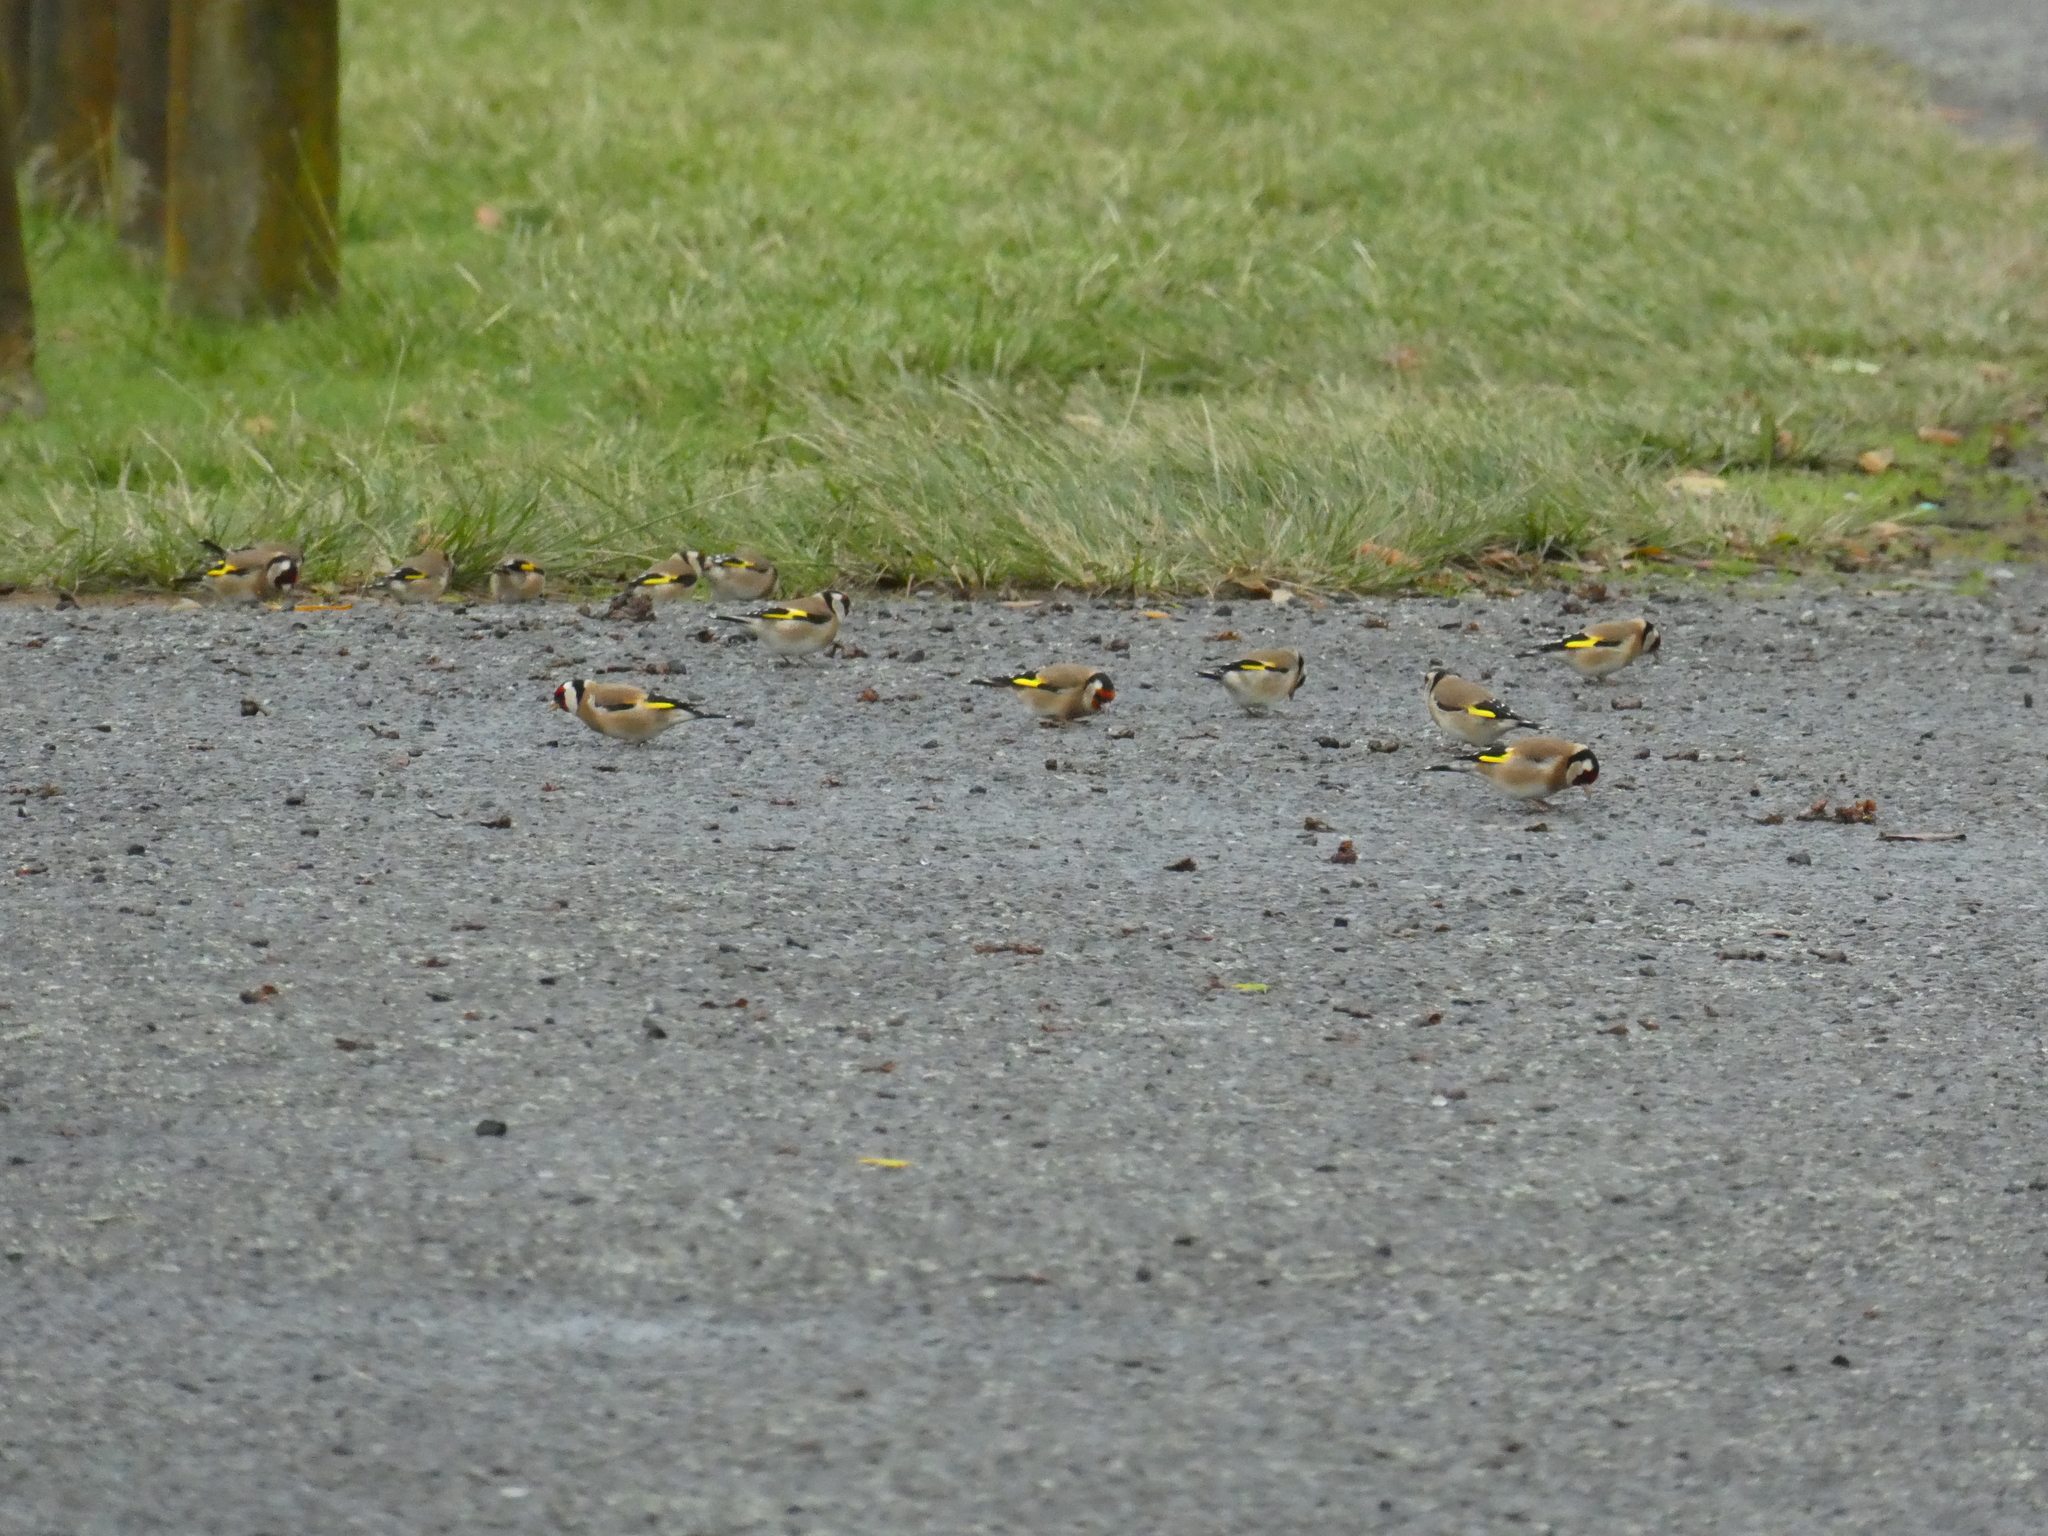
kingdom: Animalia
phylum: Chordata
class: Aves
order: Passeriformes
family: Fringillidae
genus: Carduelis
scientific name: Carduelis carduelis
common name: European goldfinch
